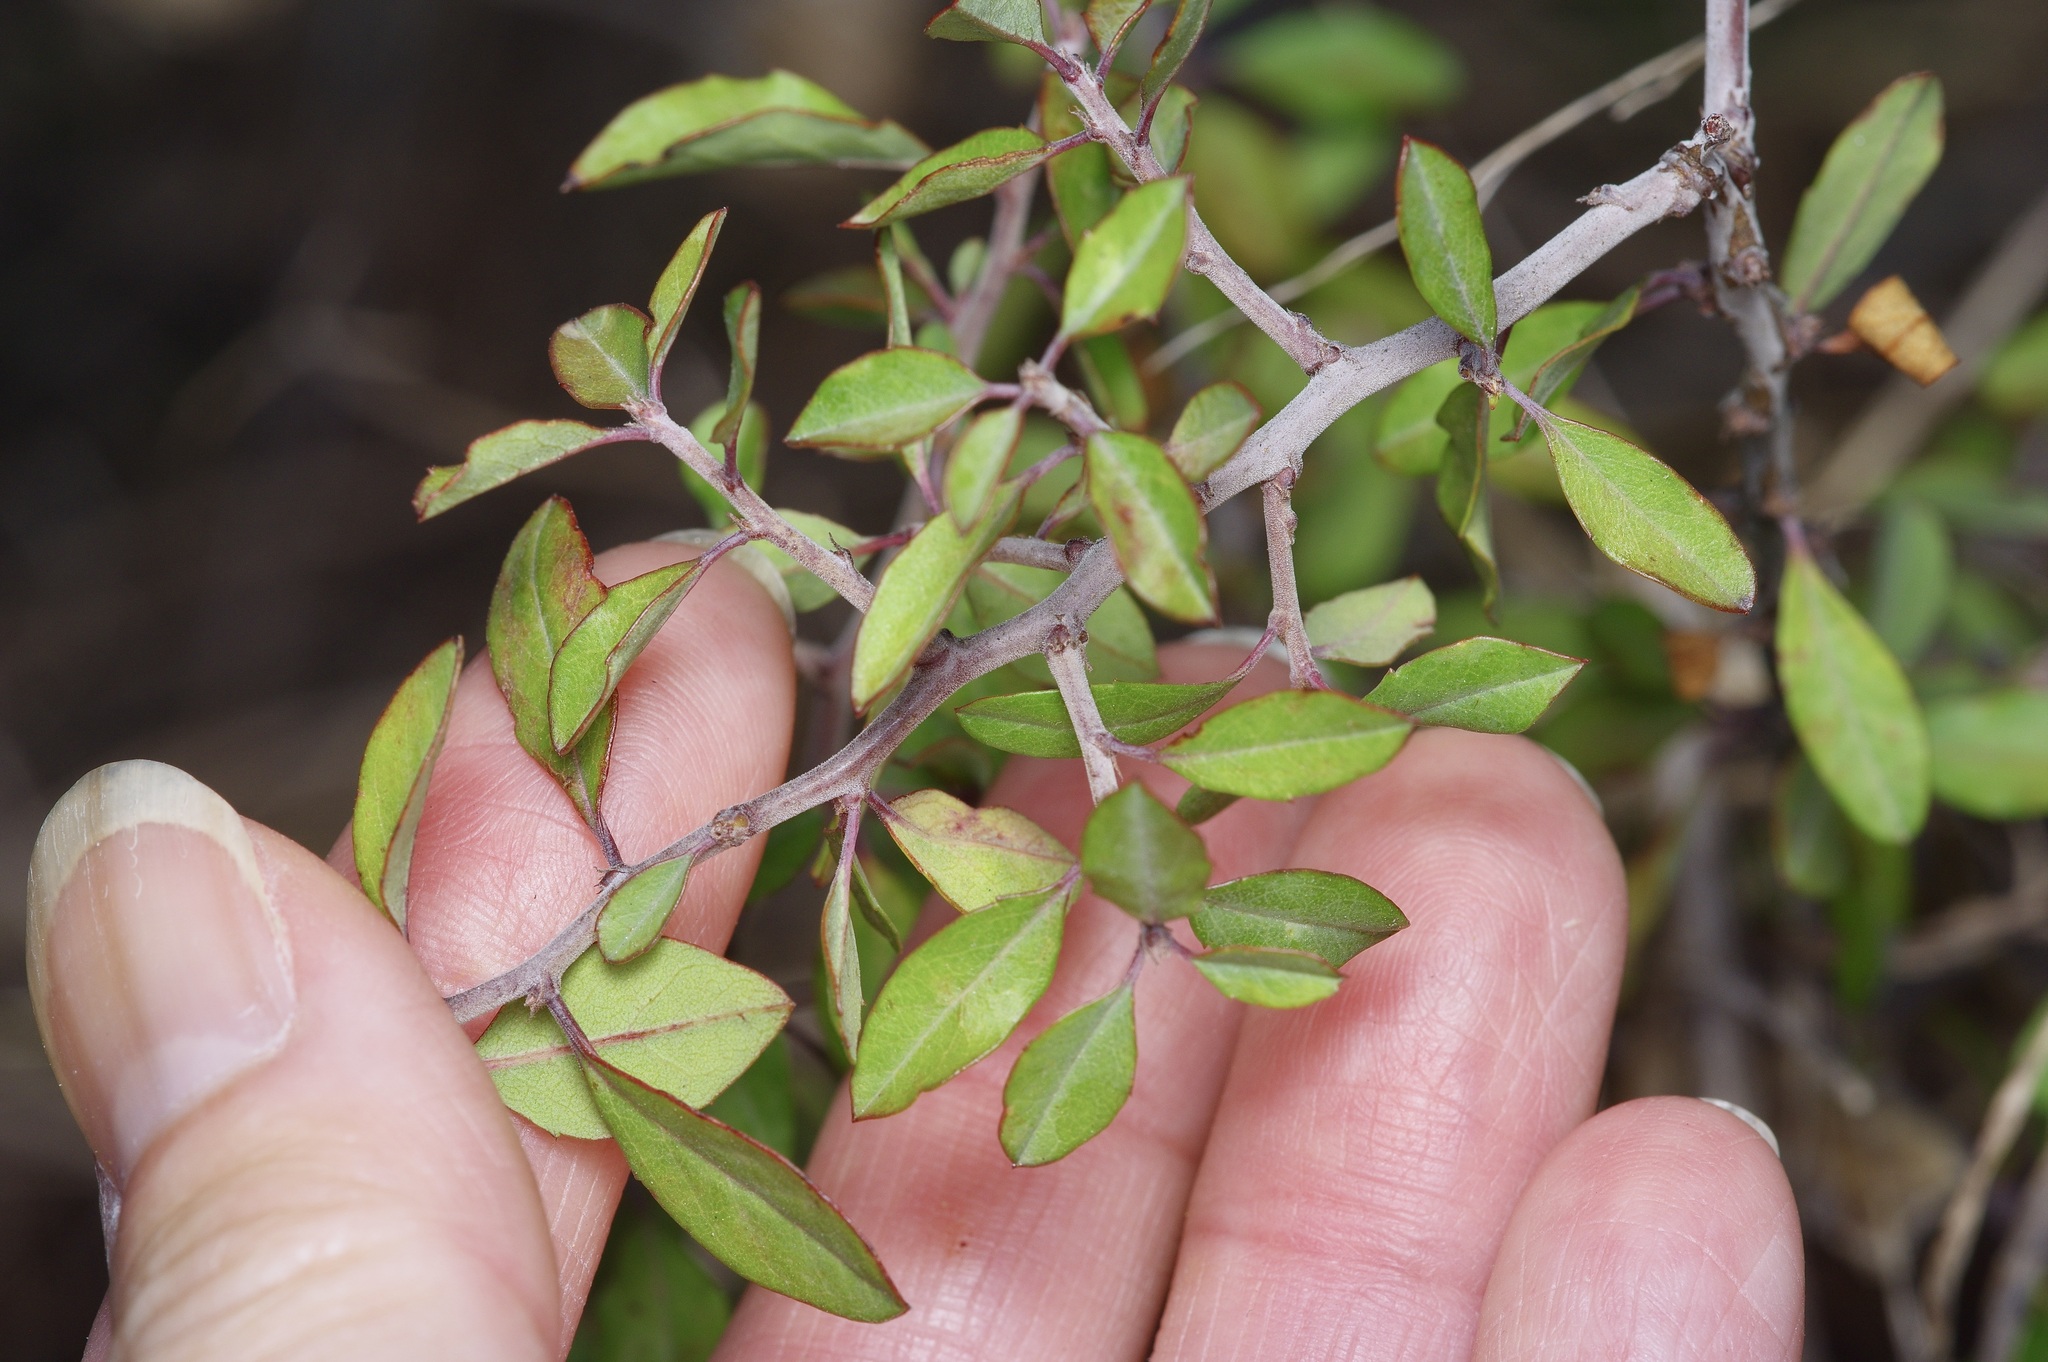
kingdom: Plantae
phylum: Tracheophyta
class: Magnoliopsida
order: Rosales
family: Rosaceae
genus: Prunus
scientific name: Prunus minutiflora
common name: Texas almond
